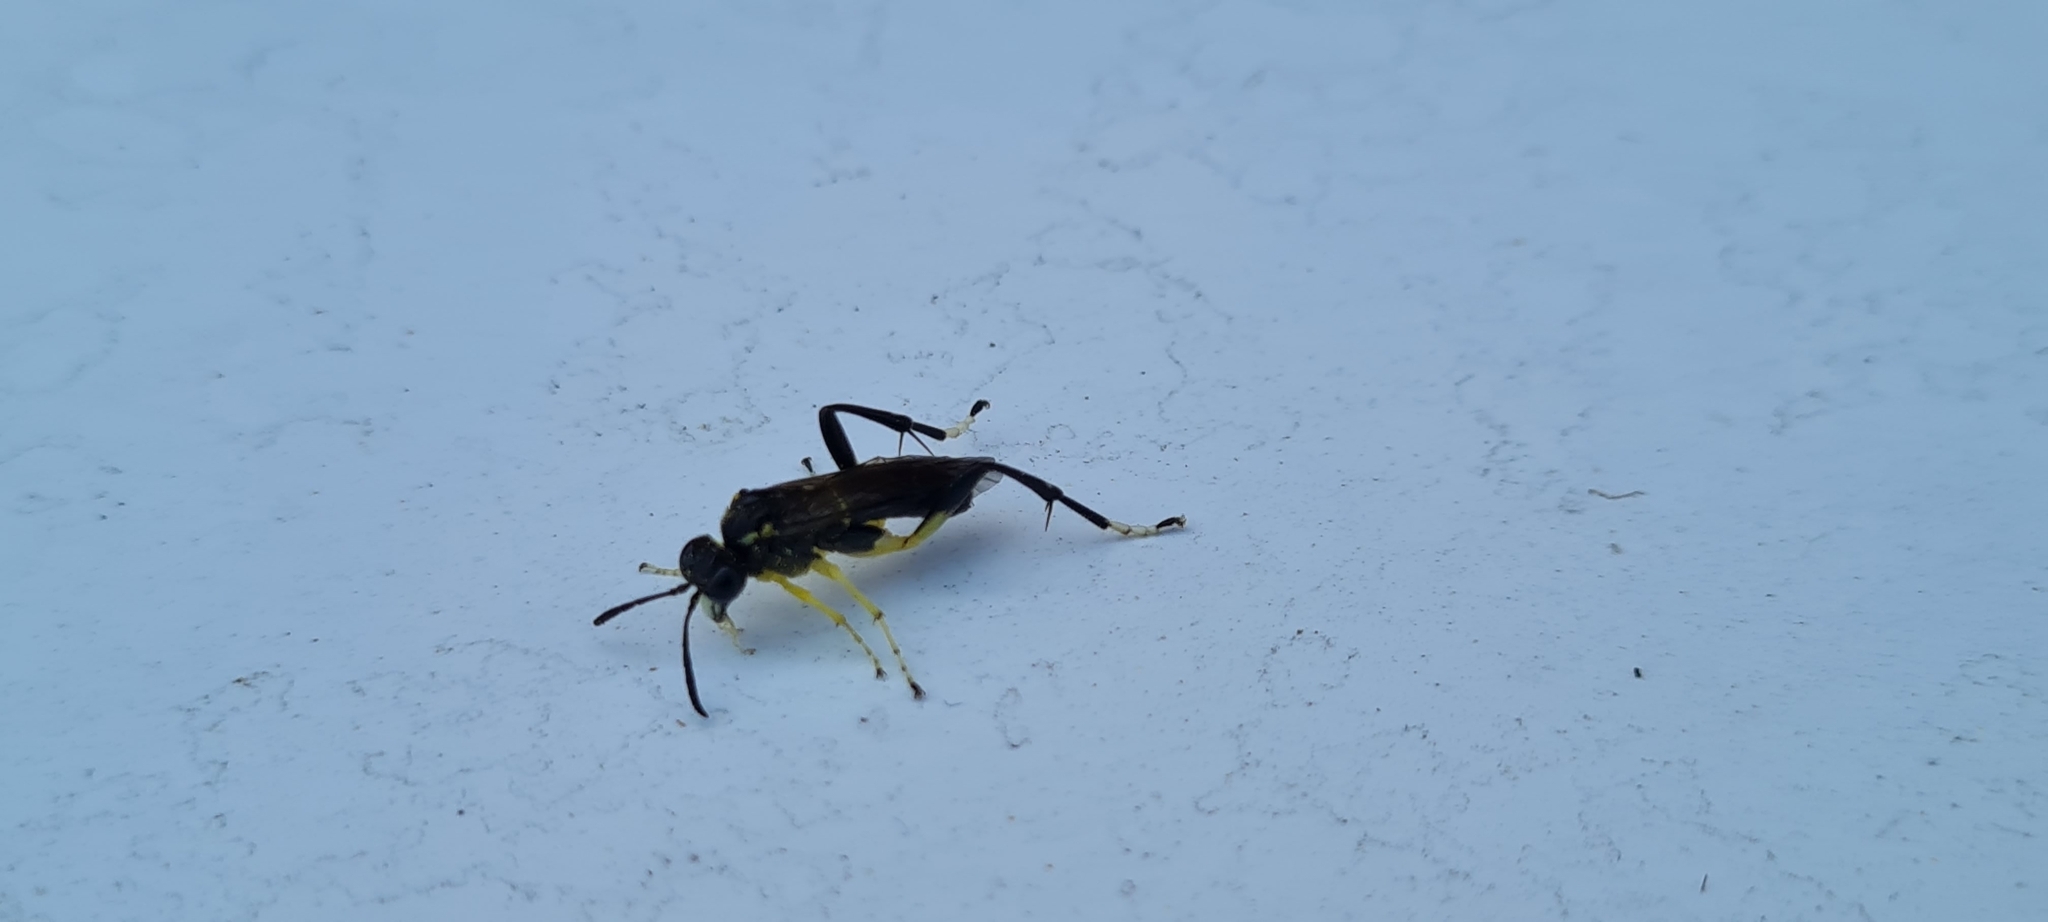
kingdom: Animalia
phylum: Arthropoda
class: Insecta
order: Hymenoptera
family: Tenthredinidae
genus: Macrophya
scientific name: Macrophya montana
